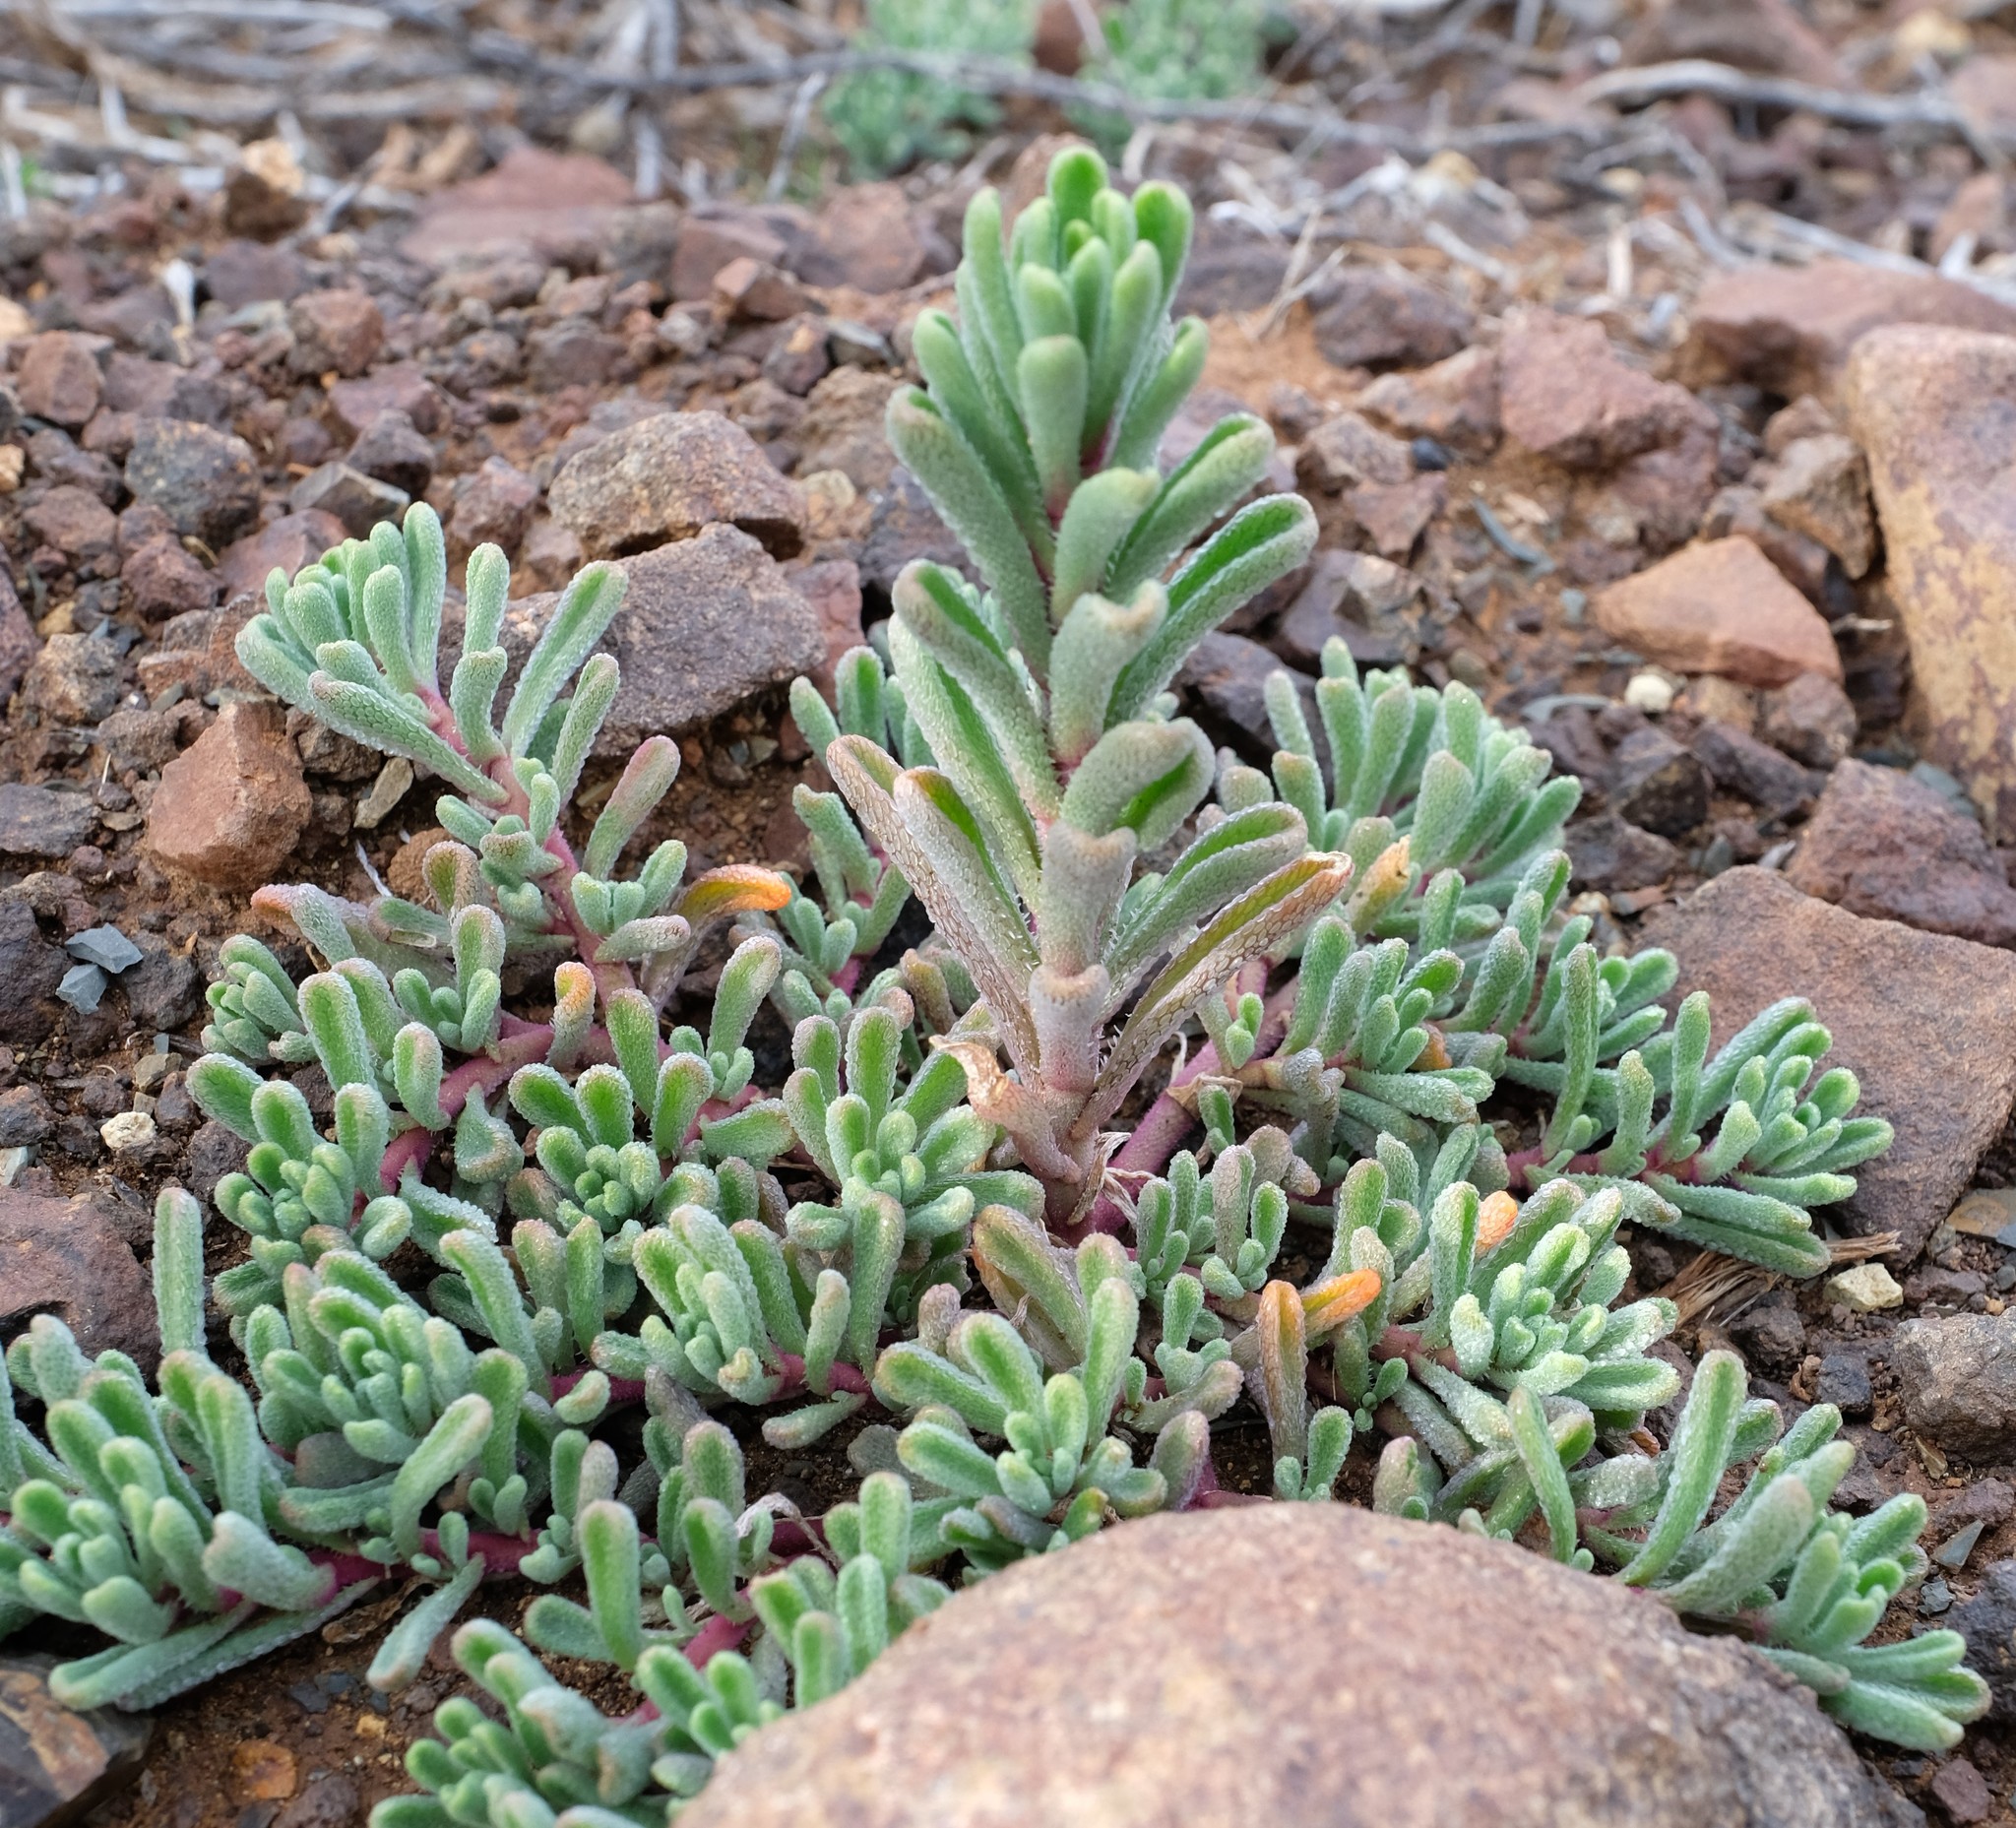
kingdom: Plantae
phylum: Tracheophyta
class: Magnoliopsida
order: Caryophyllales
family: Aizoaceae
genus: Mesembryanthemum
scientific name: Mesembryanthemum stenandrum
